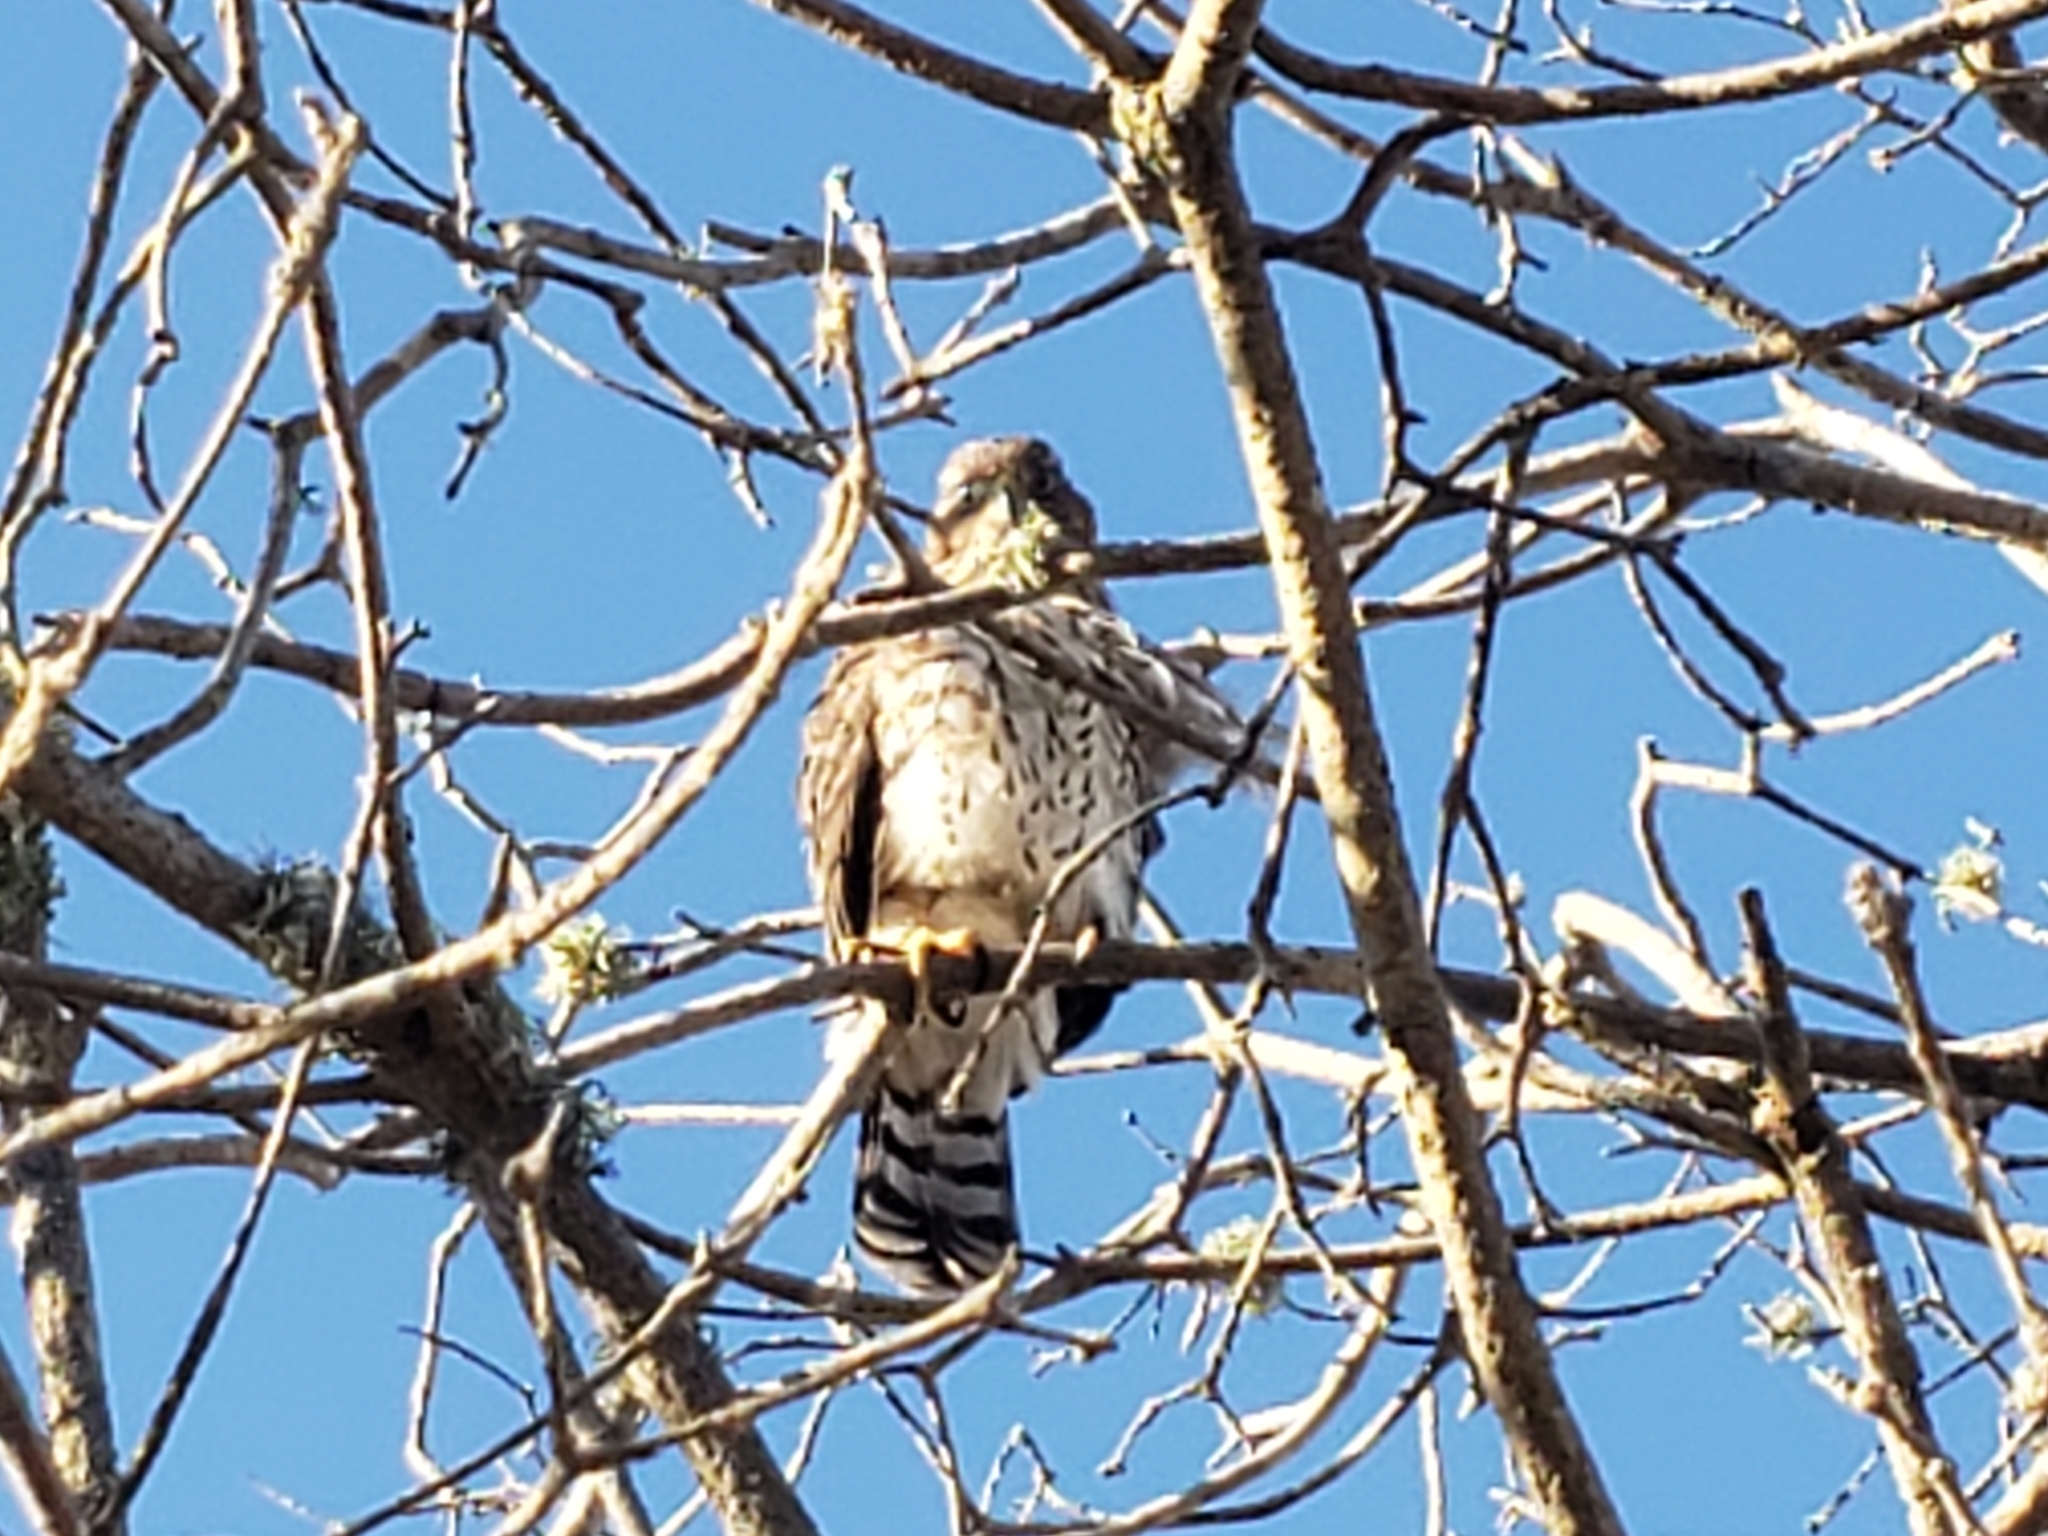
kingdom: Animalia
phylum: Chordata
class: Aves
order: Accipitriformes
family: Accipitridae
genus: Accipiter
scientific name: Accipiter cooperii
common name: Cooper's hawk
